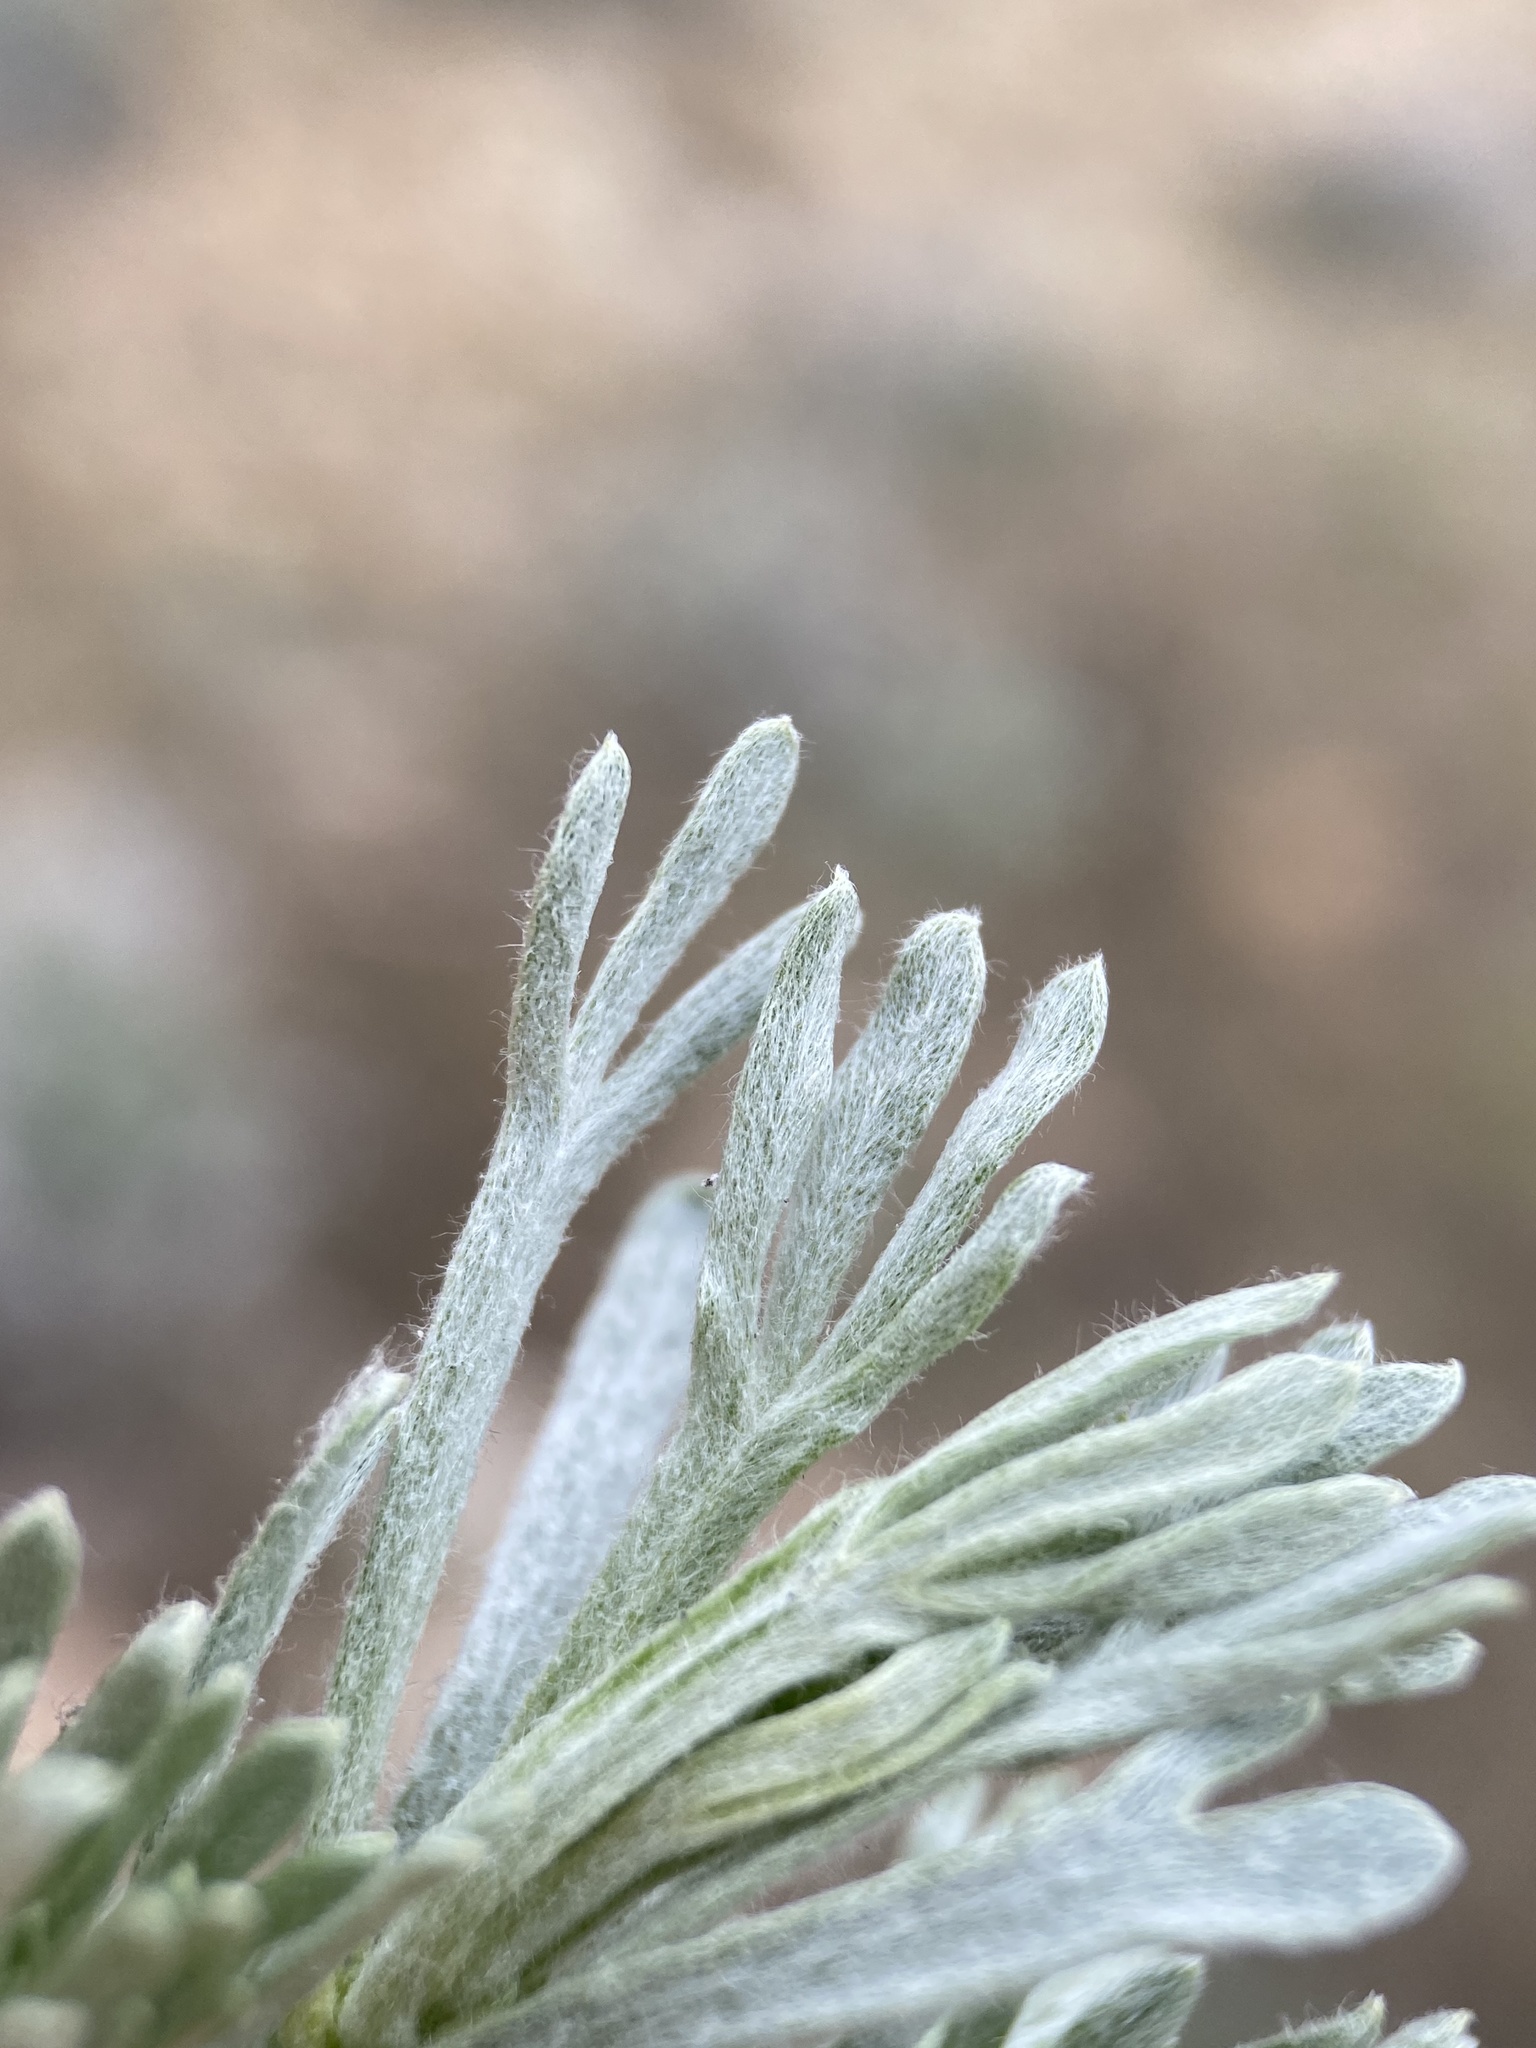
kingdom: Plantae
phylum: Tracheophyta
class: Magnoliopsida
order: Asterales
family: Asteraceae
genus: Artemisia
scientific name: Artemisia rigida
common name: Scabland sagebrush
